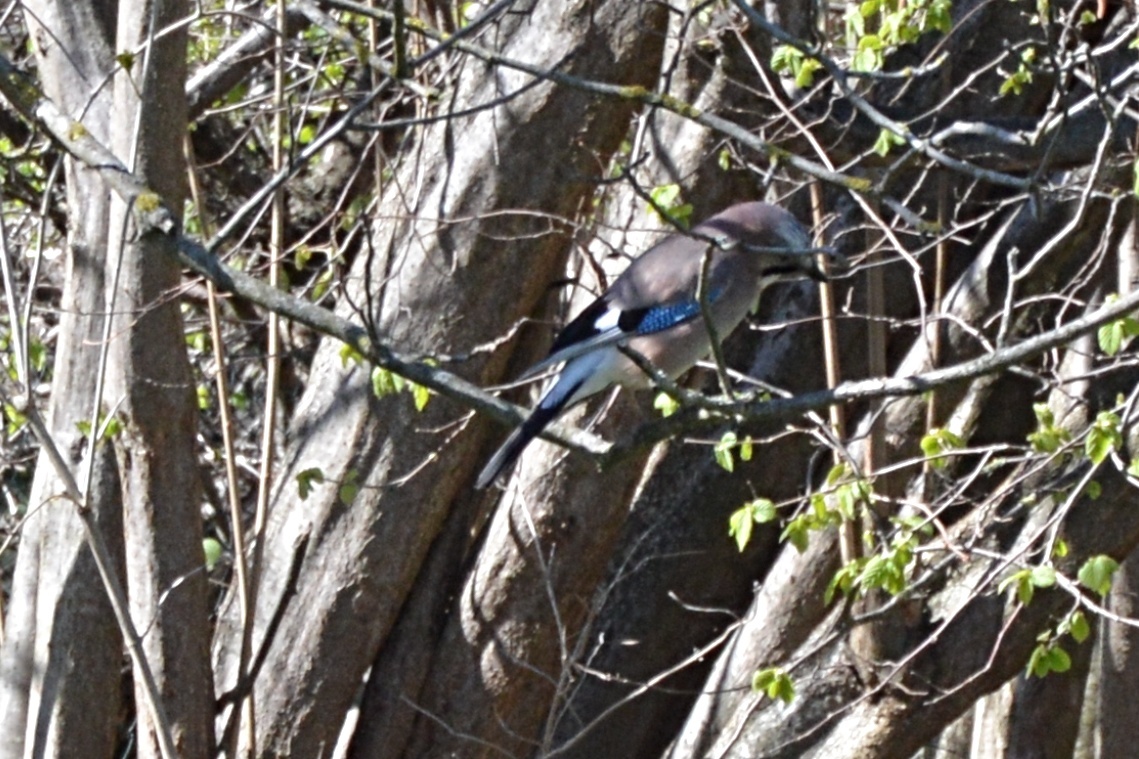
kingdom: Animalia
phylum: Chordata
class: Aves
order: Passeriformes
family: Corvidae
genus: Garrulus
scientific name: Garrulus glandarius
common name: Eurasian jay
